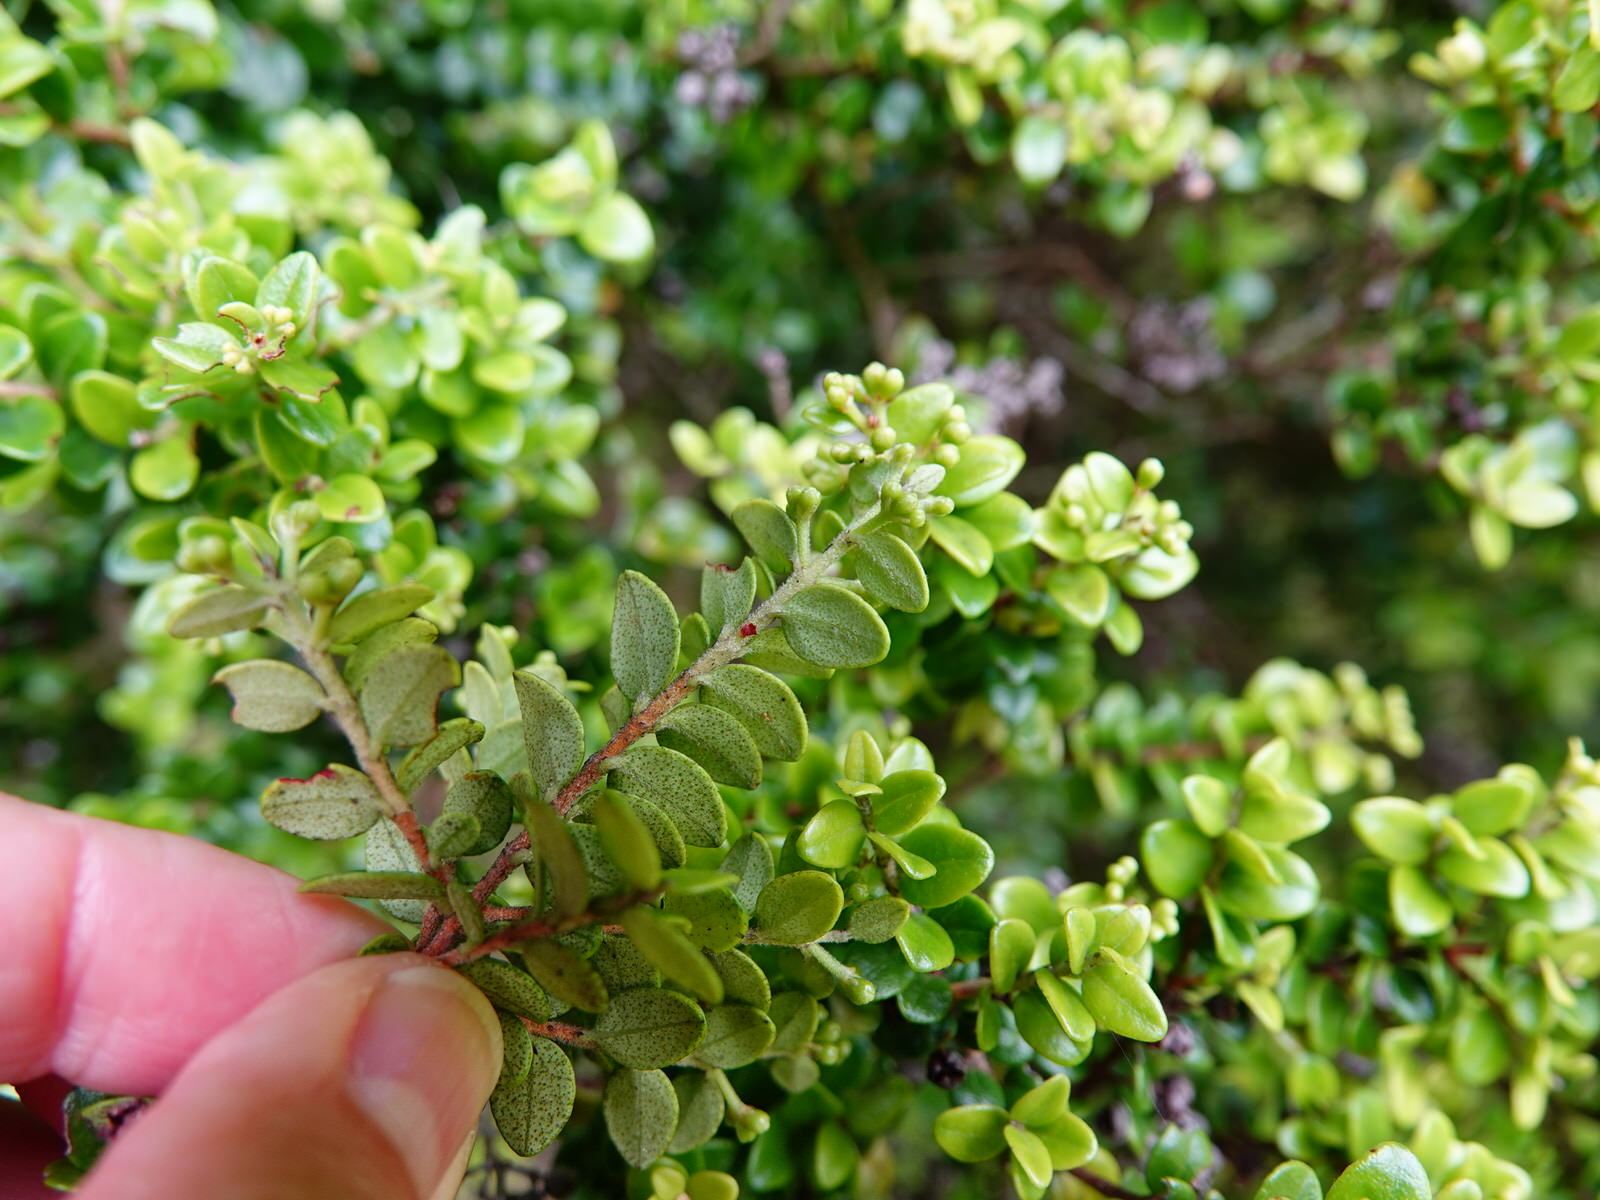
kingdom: Plantae
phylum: Tracheophyta
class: Magnoliopsida
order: Myrtales
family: Myrtaceae
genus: Metrosideros
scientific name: Metrosideros perforata
